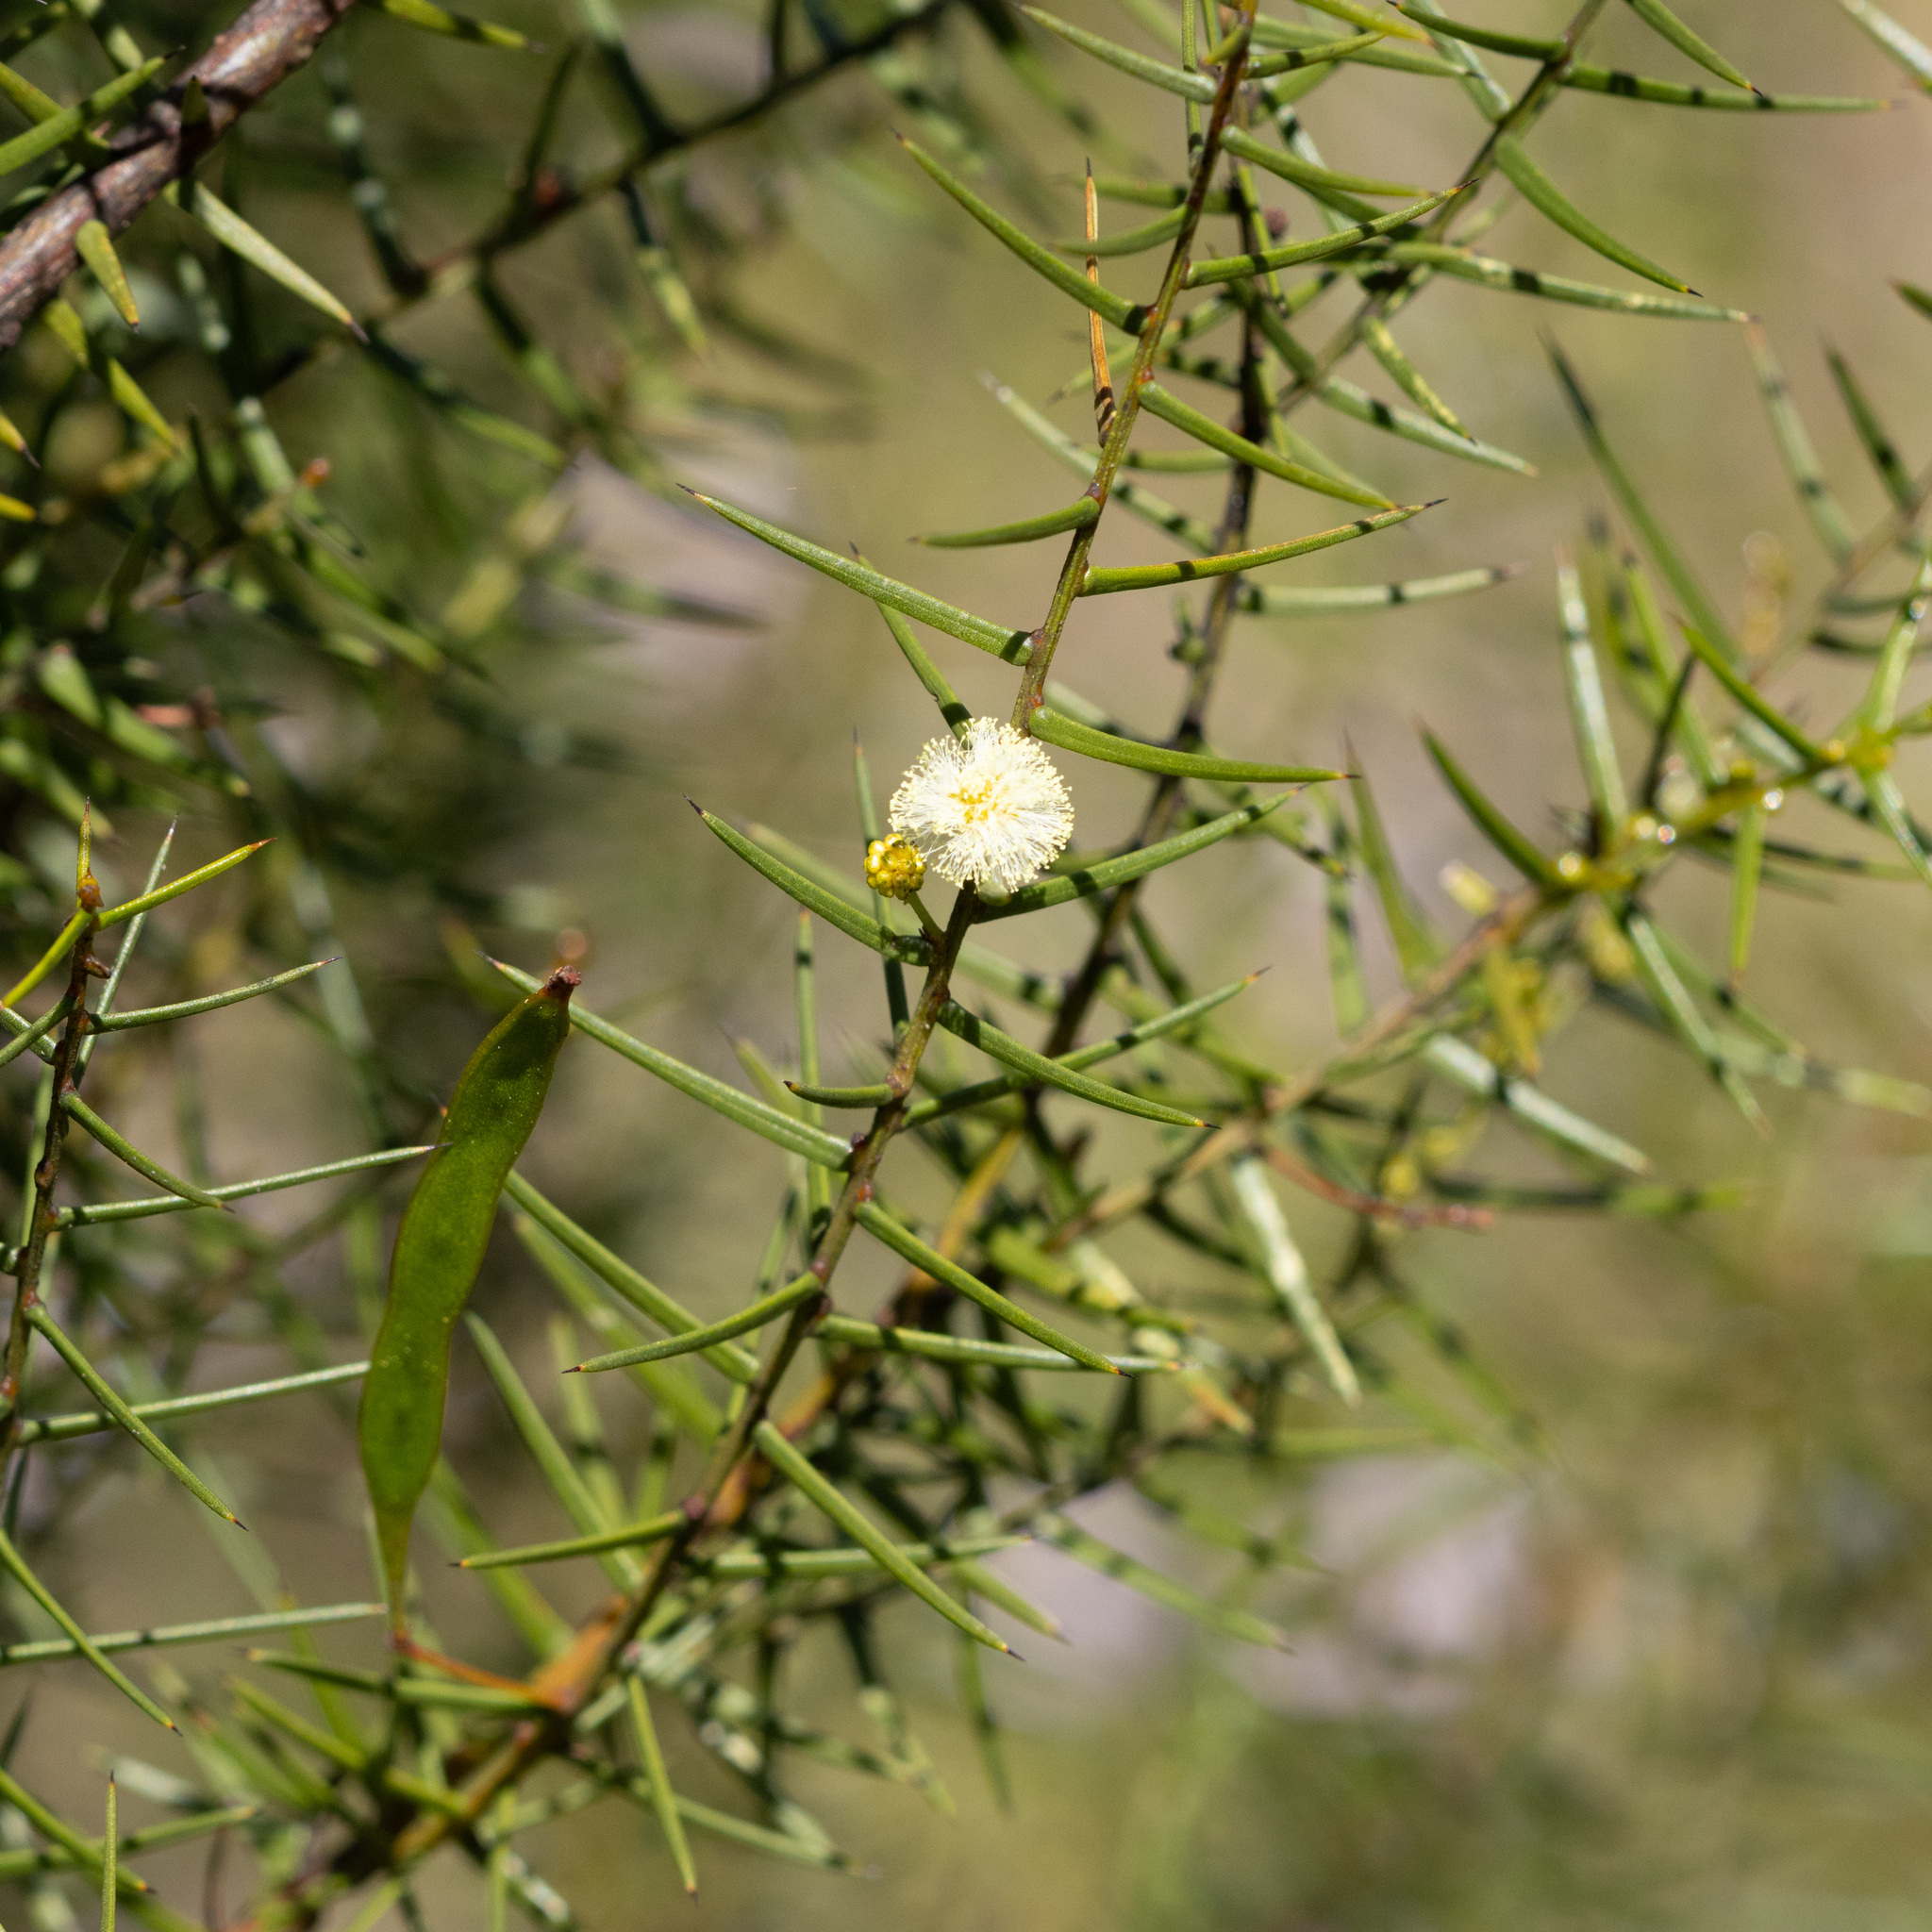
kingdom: Plantae
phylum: Tracheophyta
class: Magnoliopsida
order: Fabales
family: Fabaceae
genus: Acacia
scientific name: Acacia rupicola
